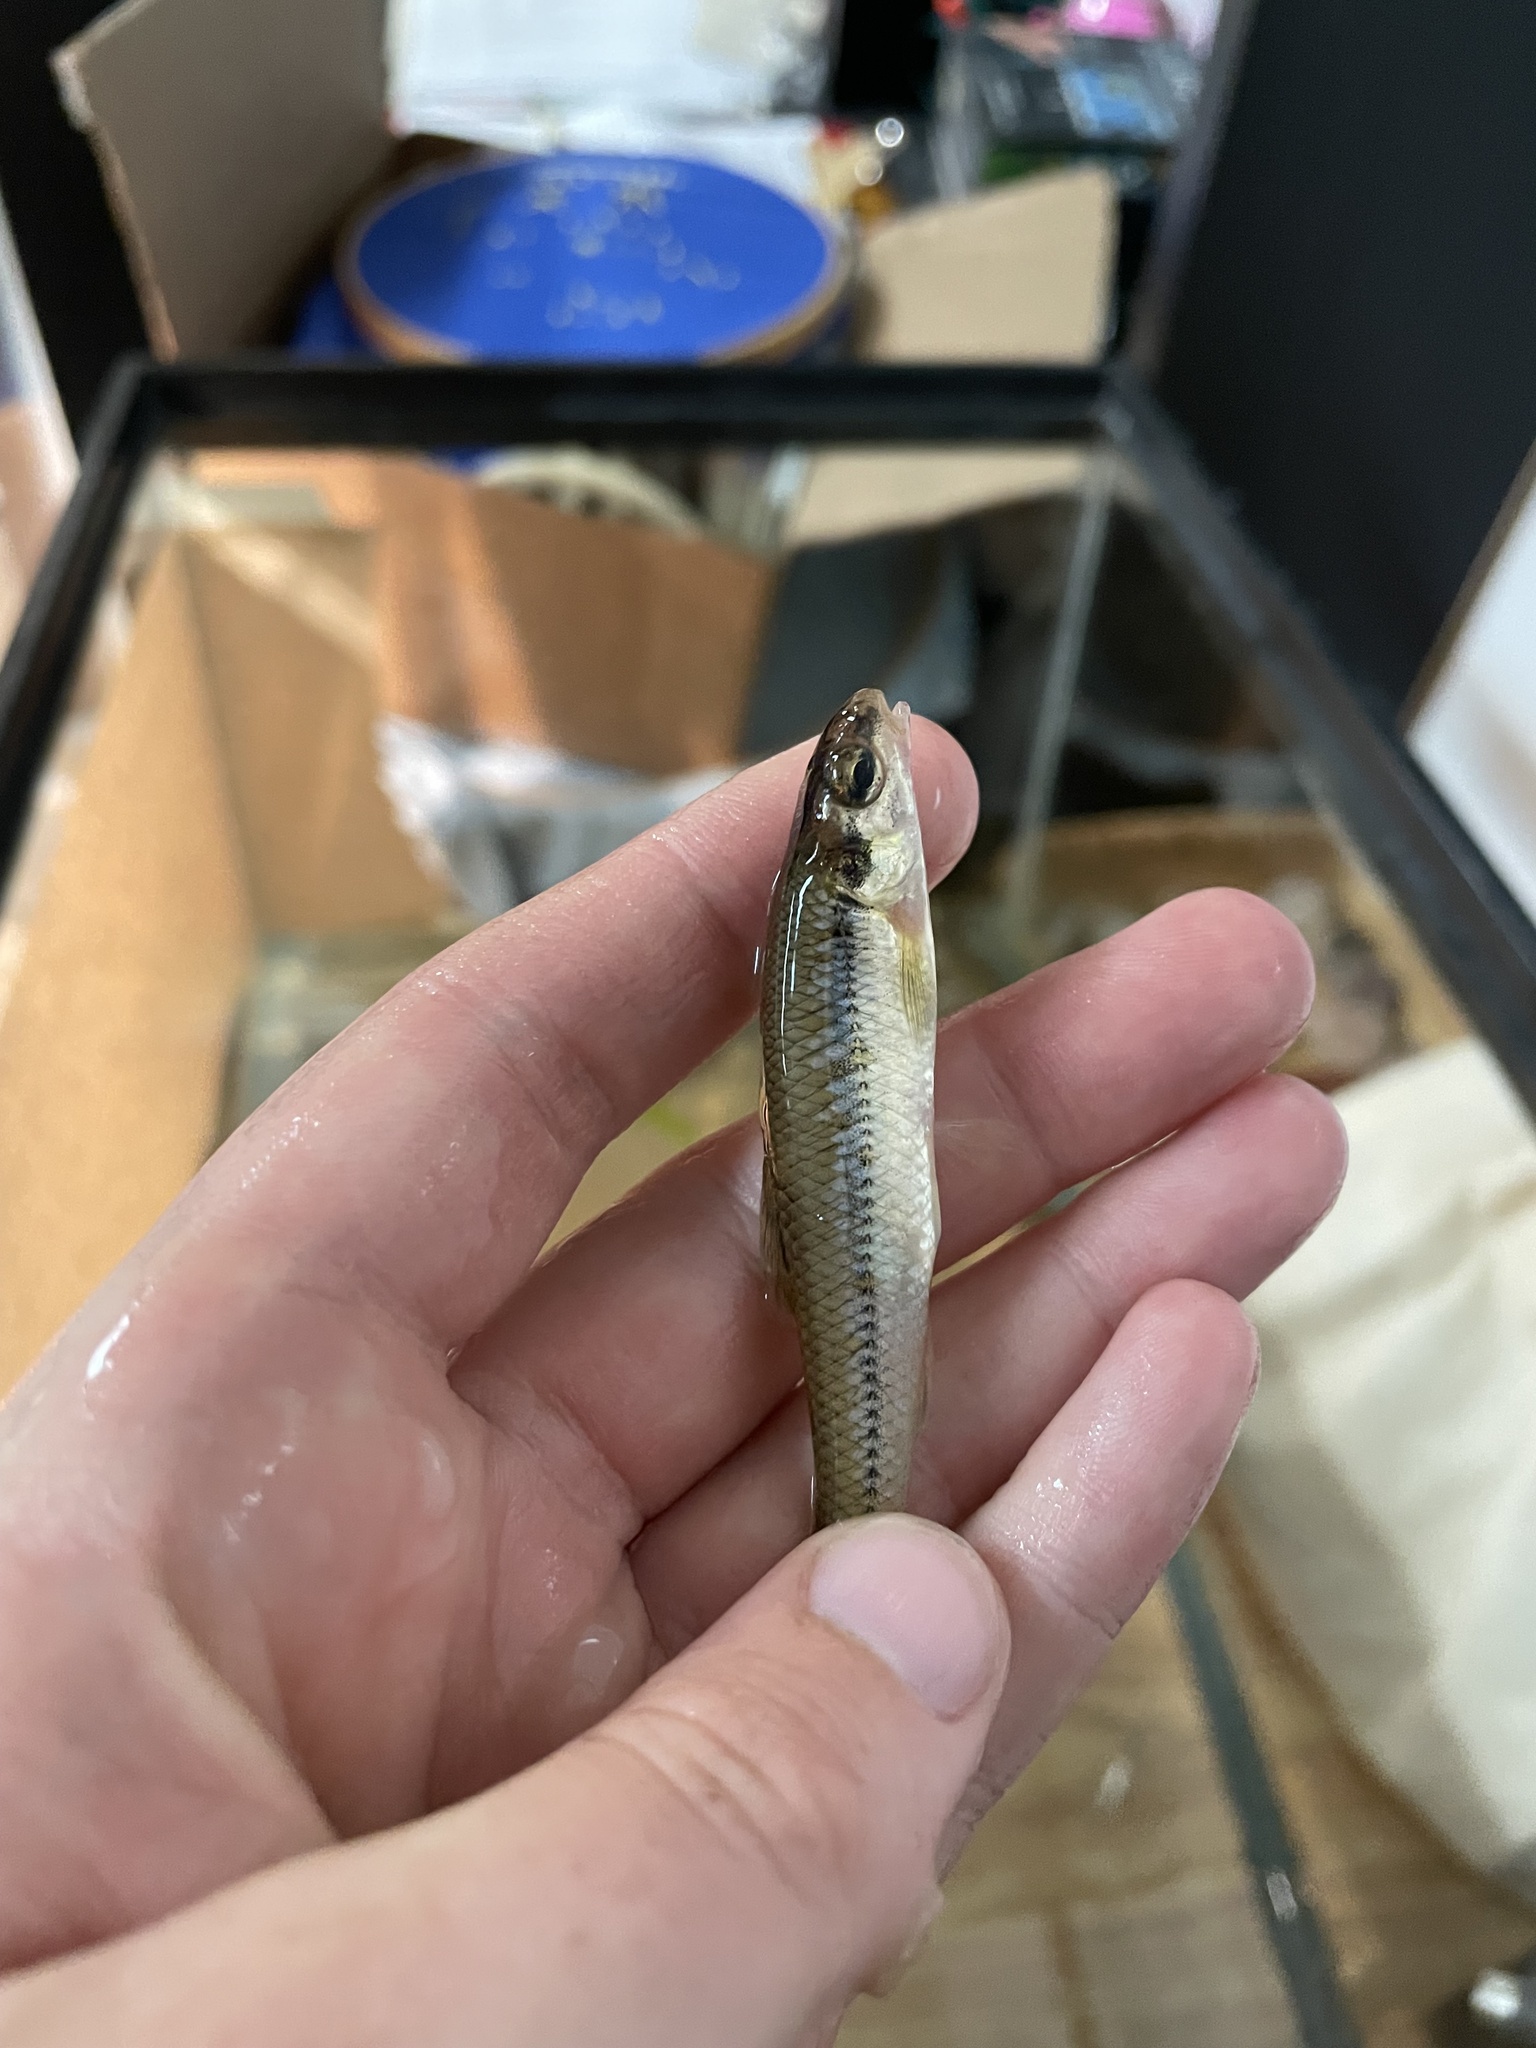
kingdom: Animalia
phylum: Chordata
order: Cypriniformes
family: Cyprinidae
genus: Pimephales
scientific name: Pimephales notatus
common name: Bluntnose minnow
